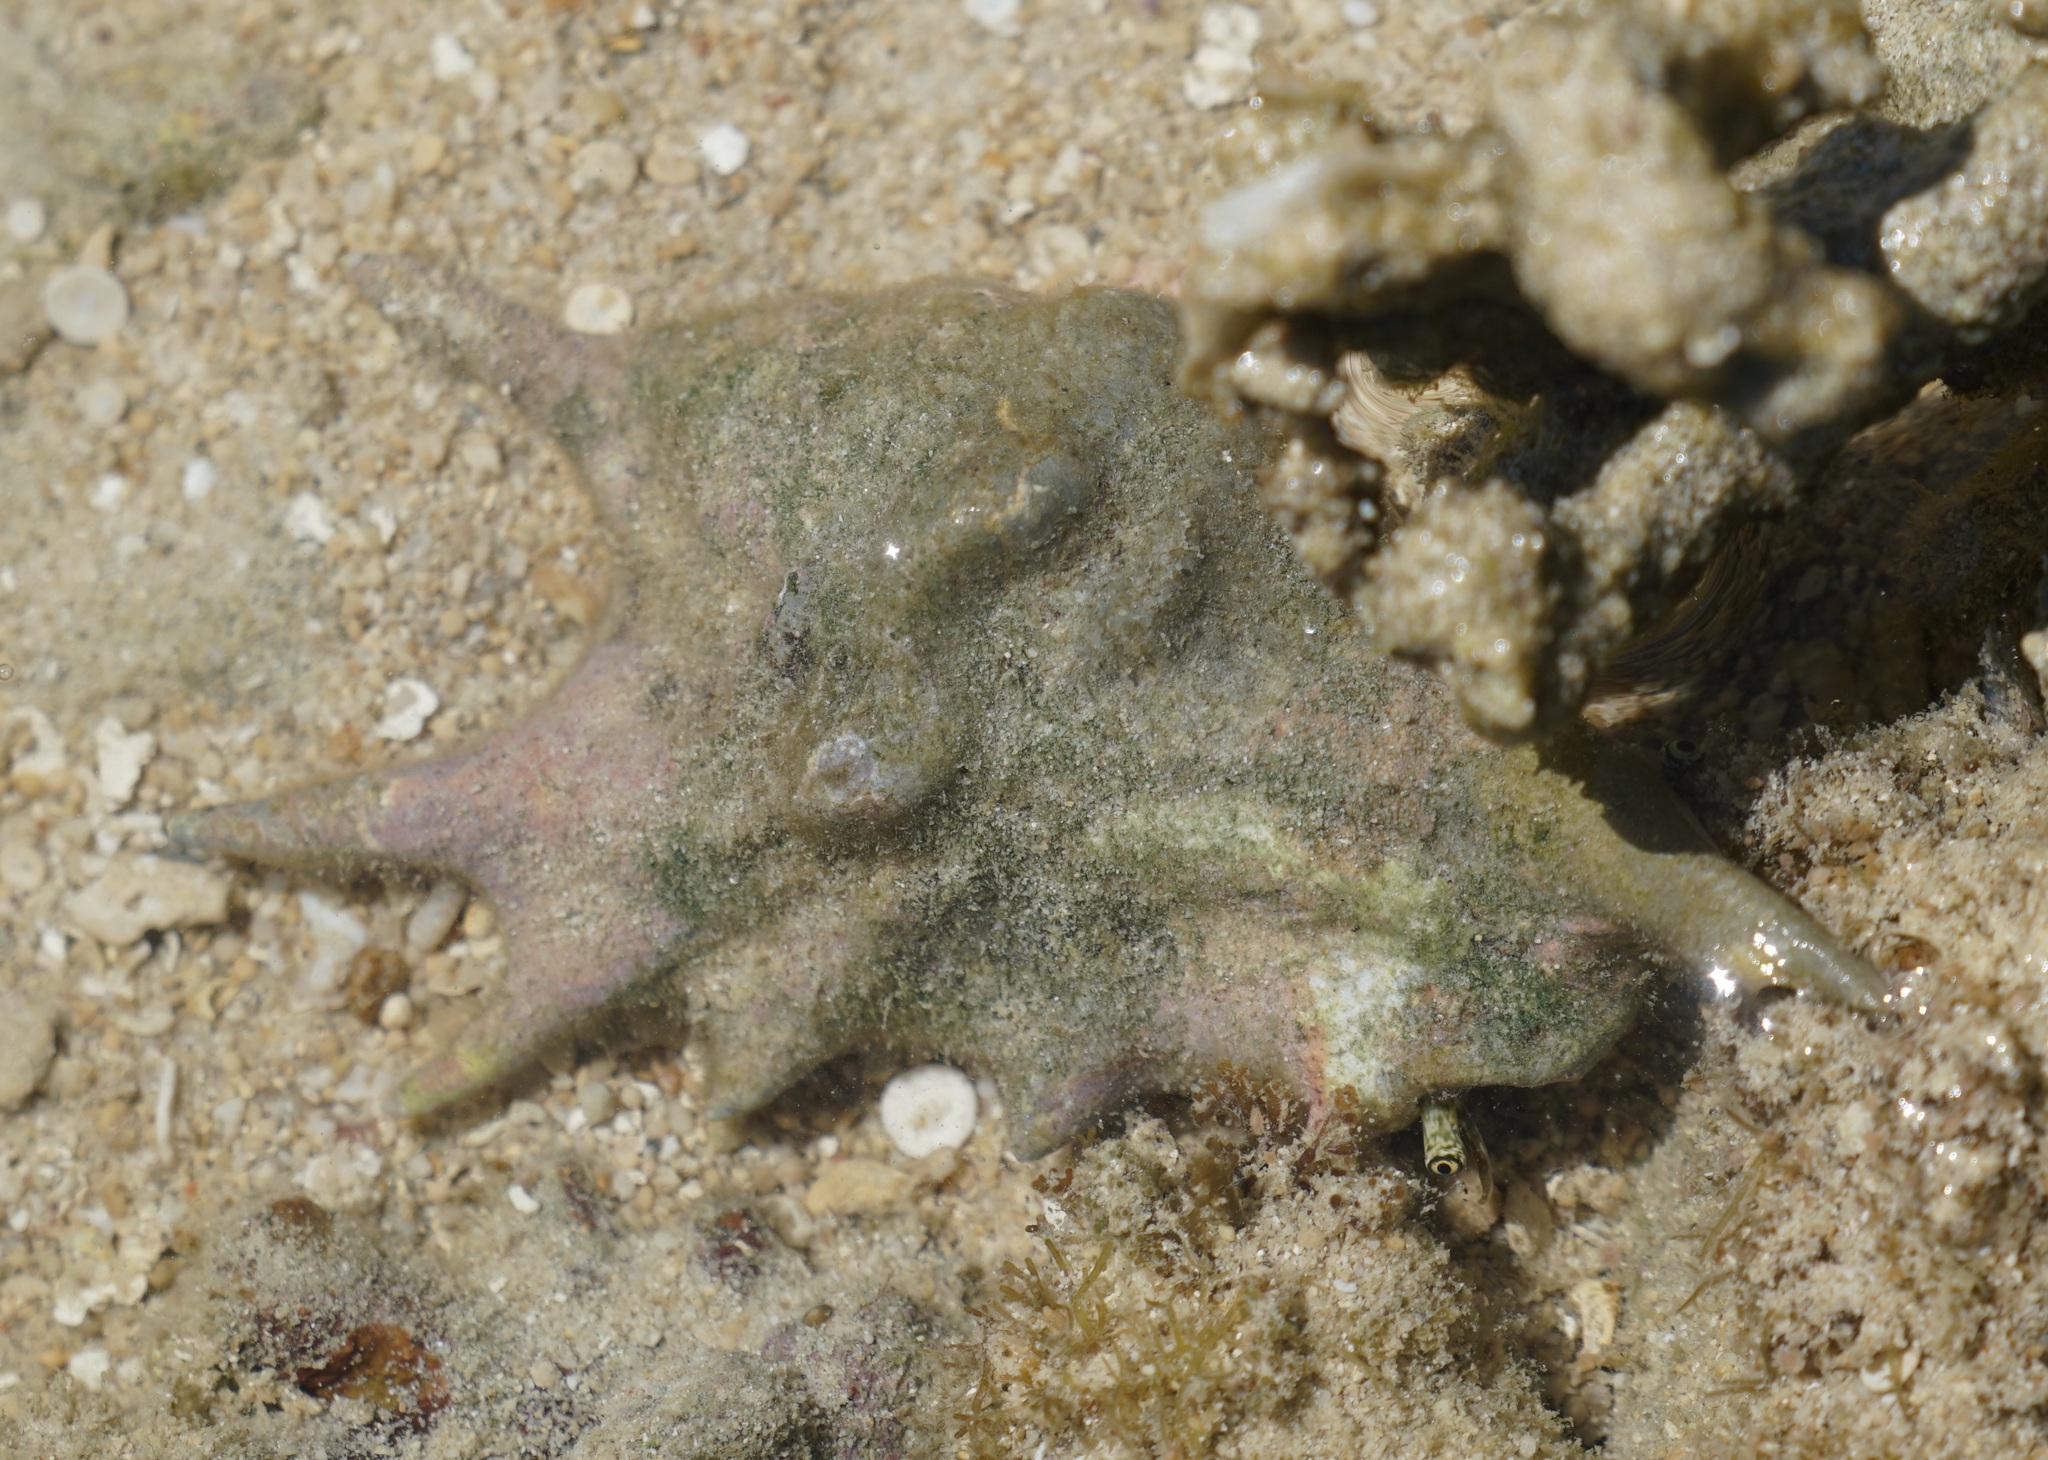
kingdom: Animalia
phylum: Mollusca
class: Gastropoda
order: Littorinimorpha
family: Strombidae
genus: Lambis
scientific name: Lambis lambis
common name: Common spider conch
